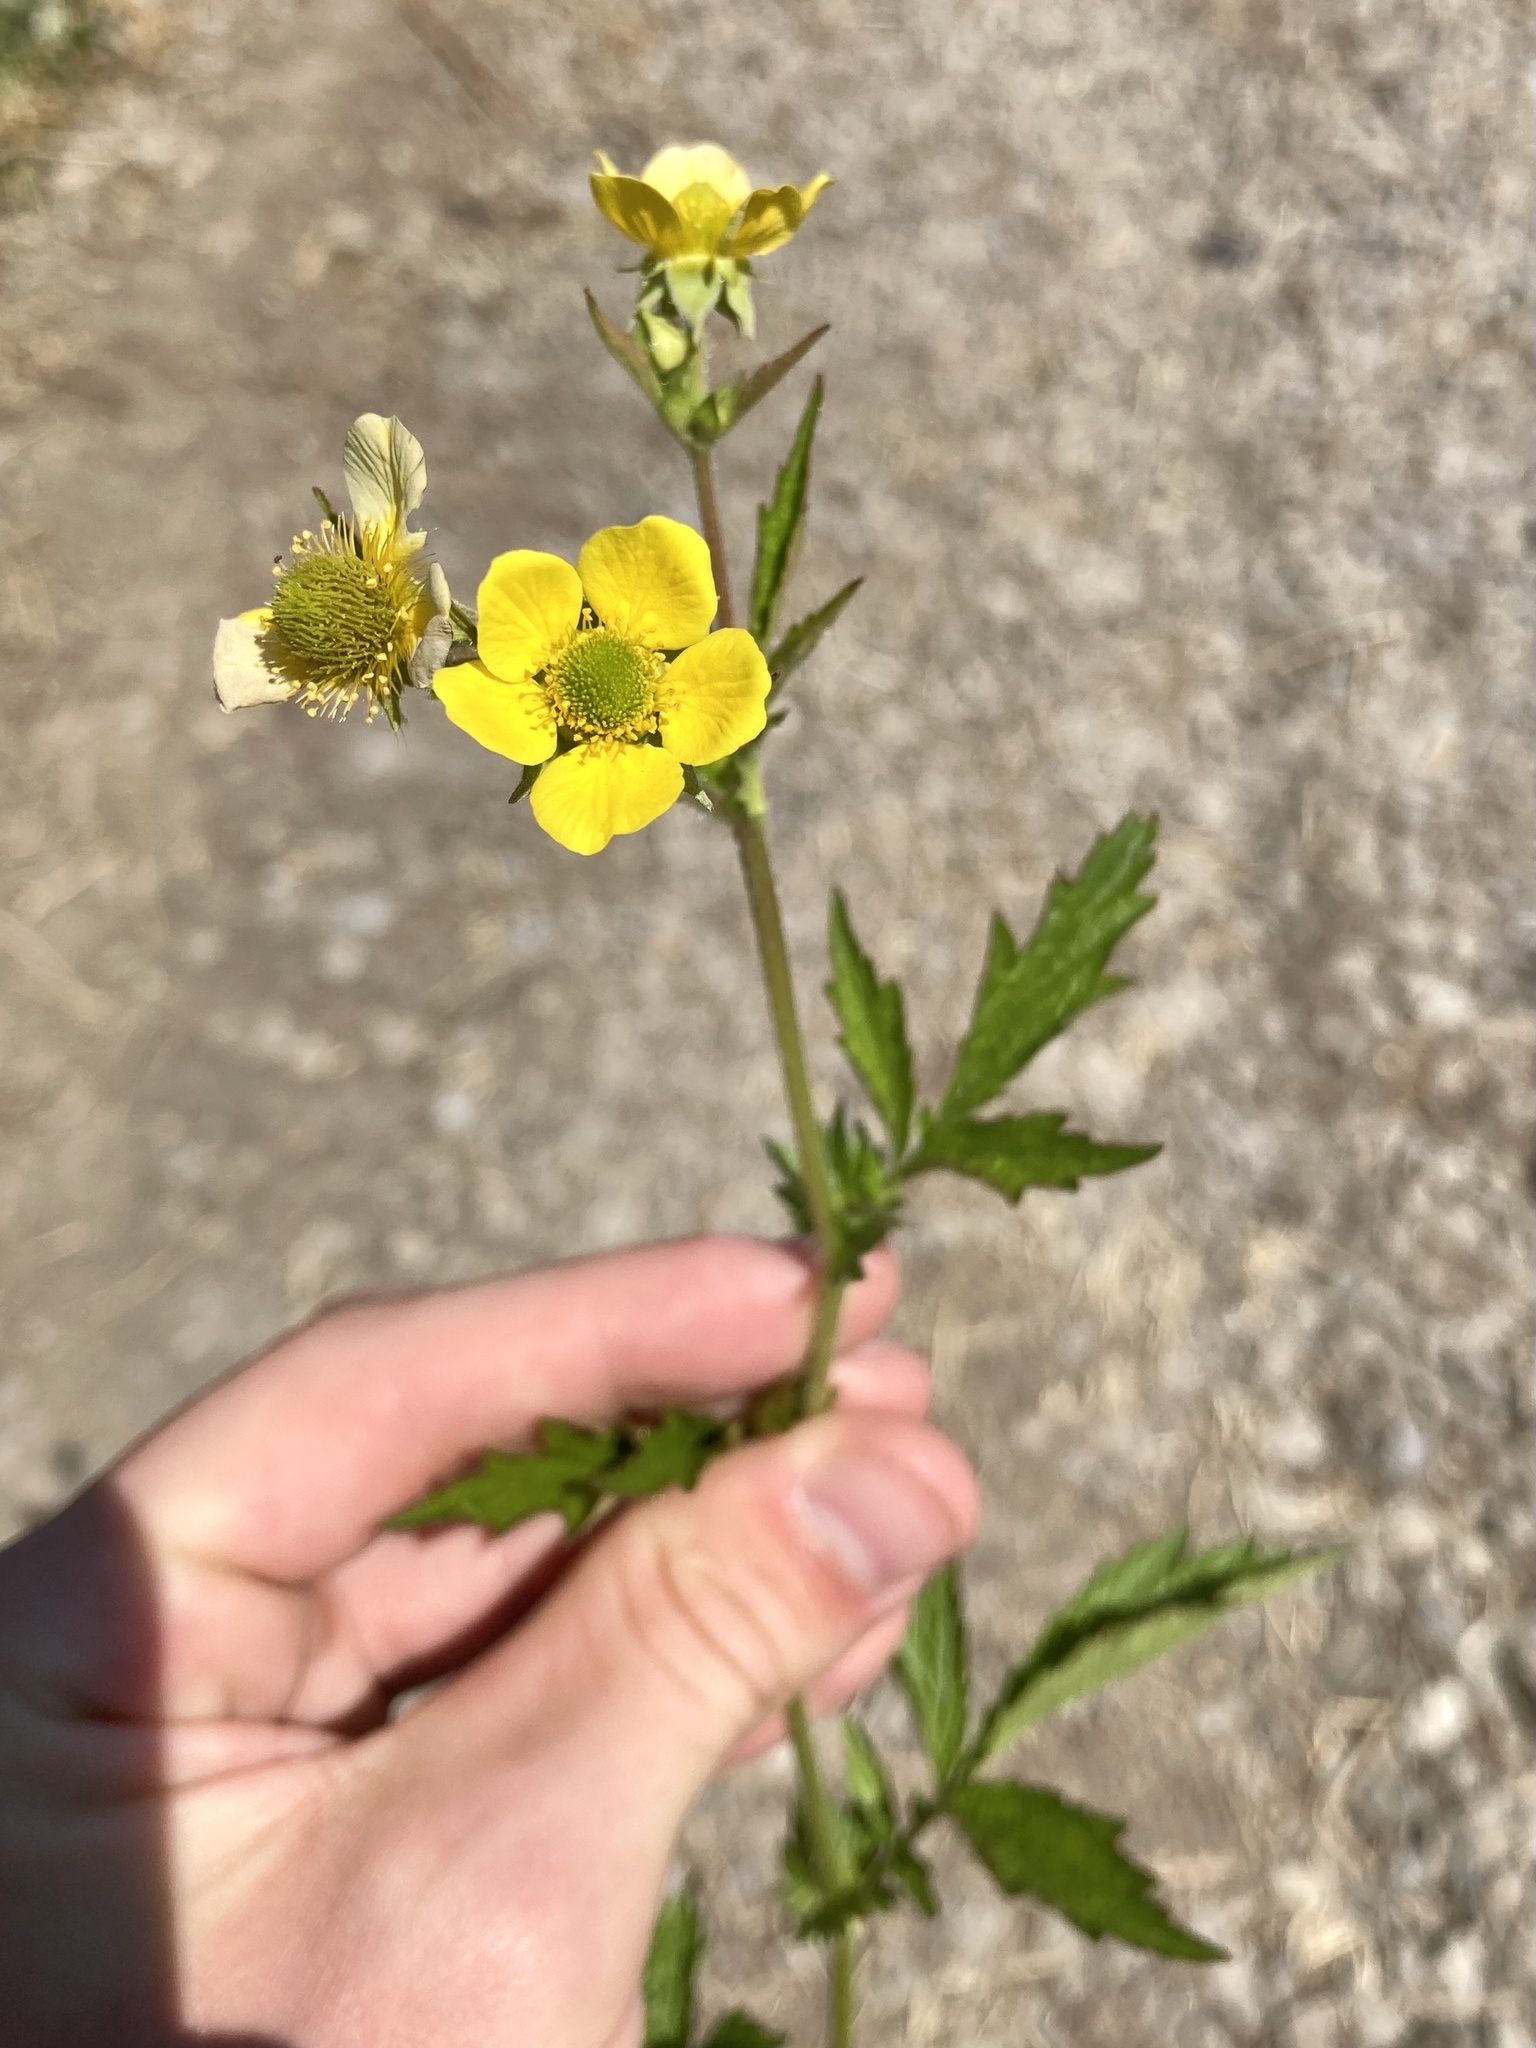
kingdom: Plantae
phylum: Tracheophyta
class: Magnoliopsida
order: Rosales
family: Rosaceae
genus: Geum
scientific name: Geum aleppicum
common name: Yellow avens
